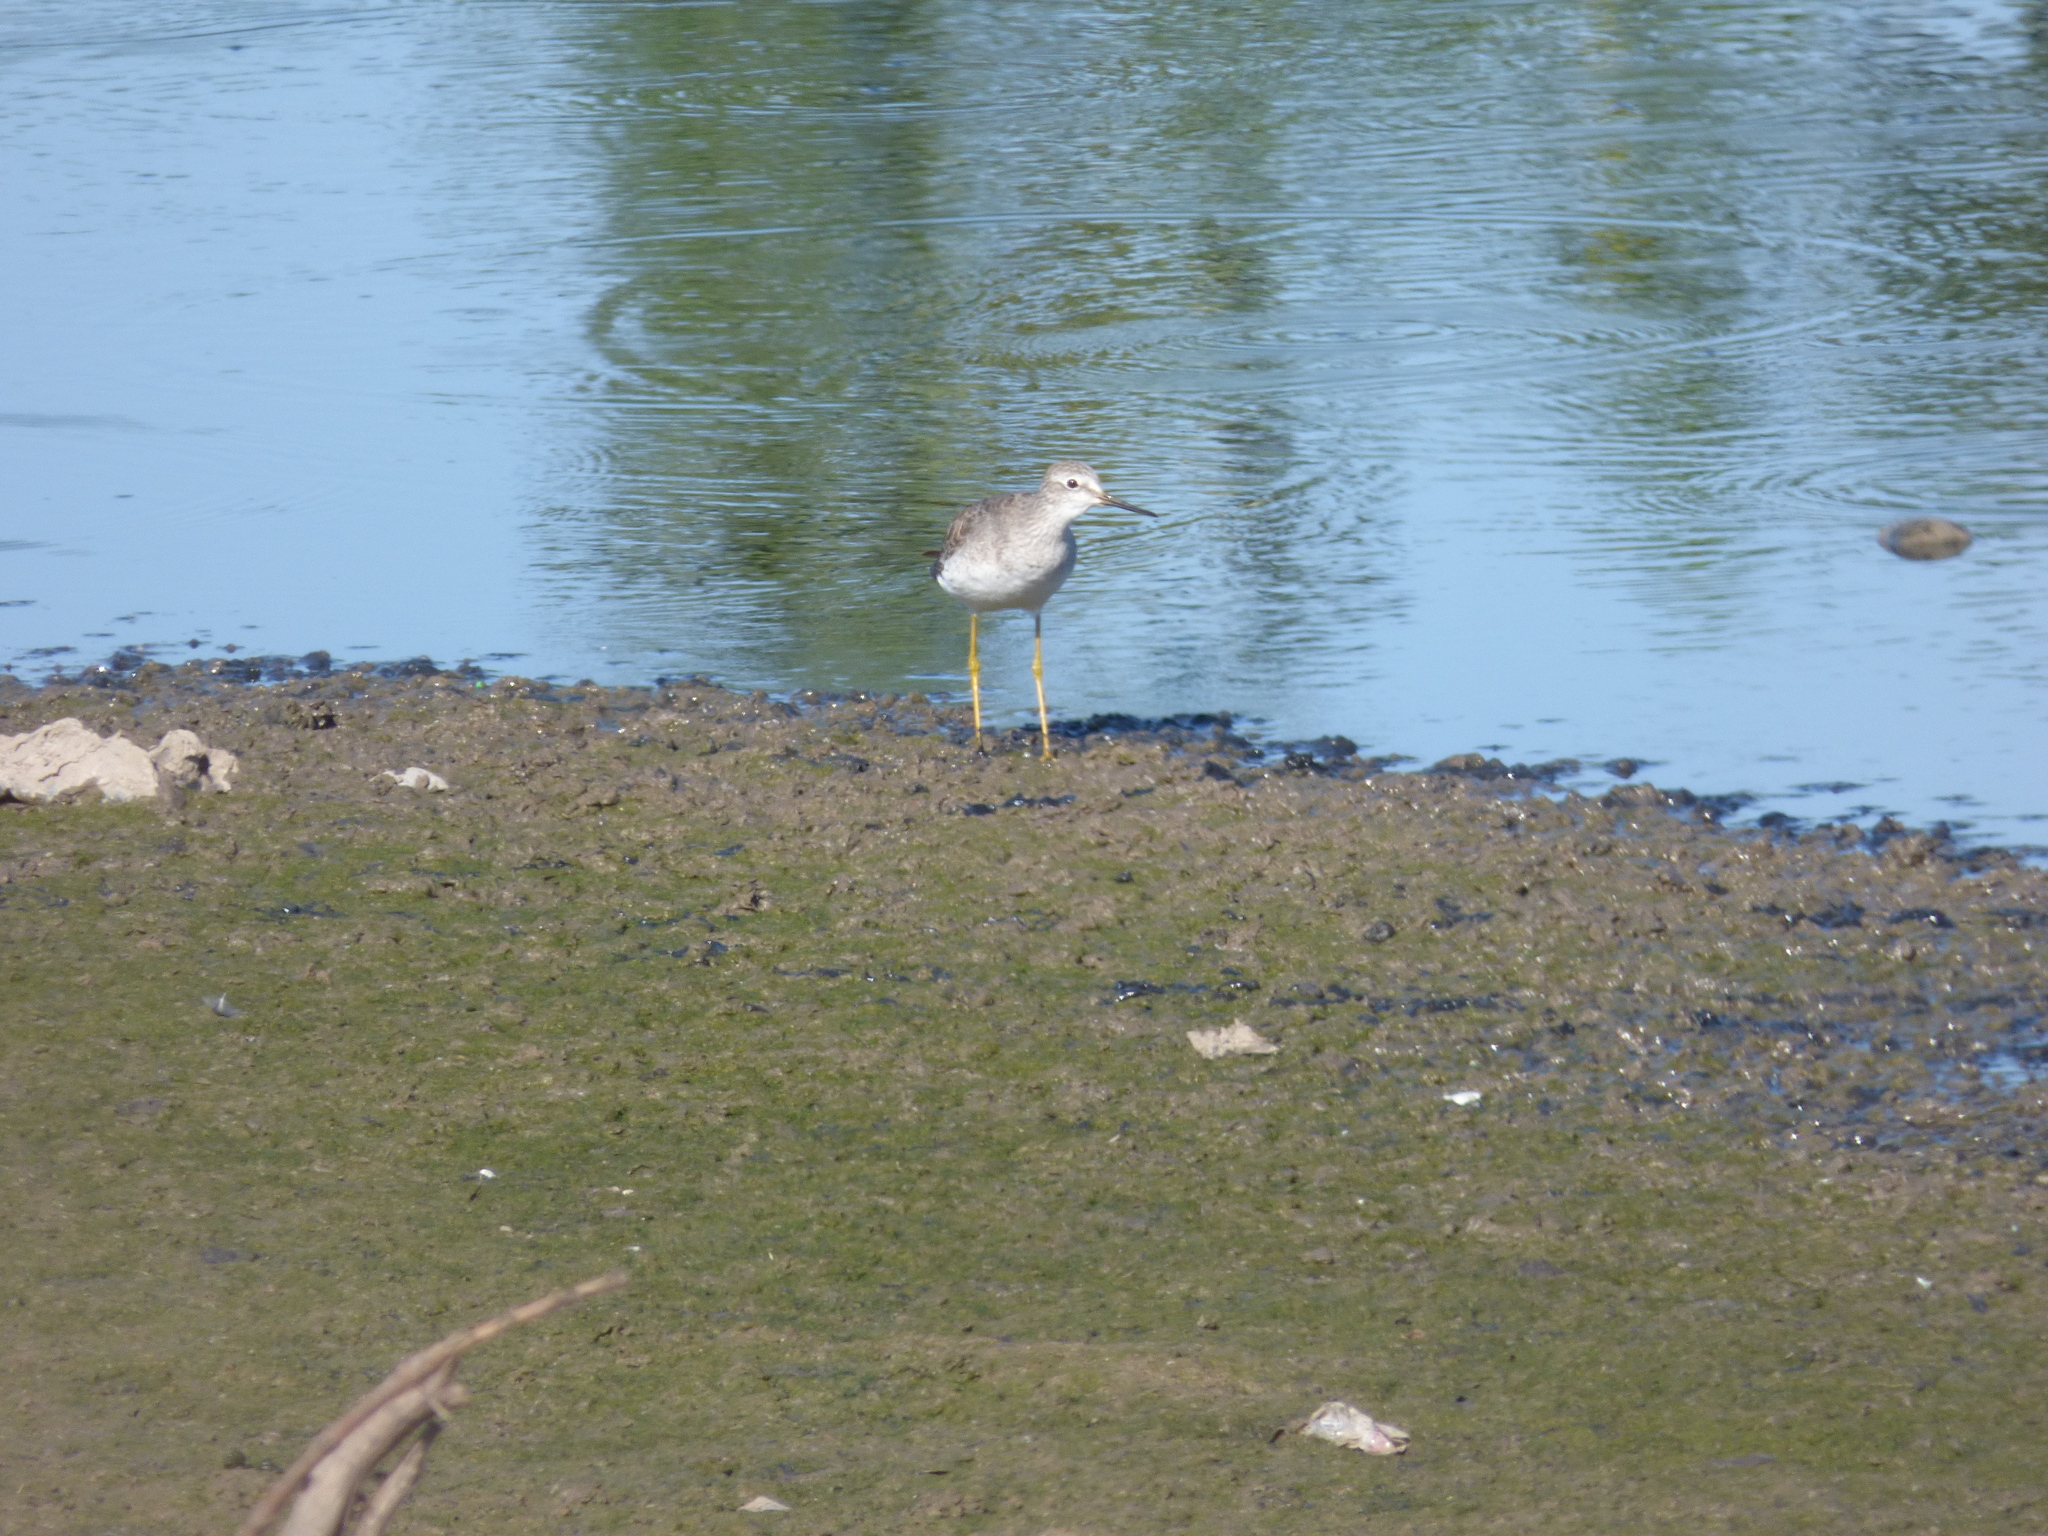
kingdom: Animalia
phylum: Chordata
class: Aves
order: Charadriiformes
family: Scolopacidae
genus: Tringa
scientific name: Tringa flavipes
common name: Lesser yellowlegs
